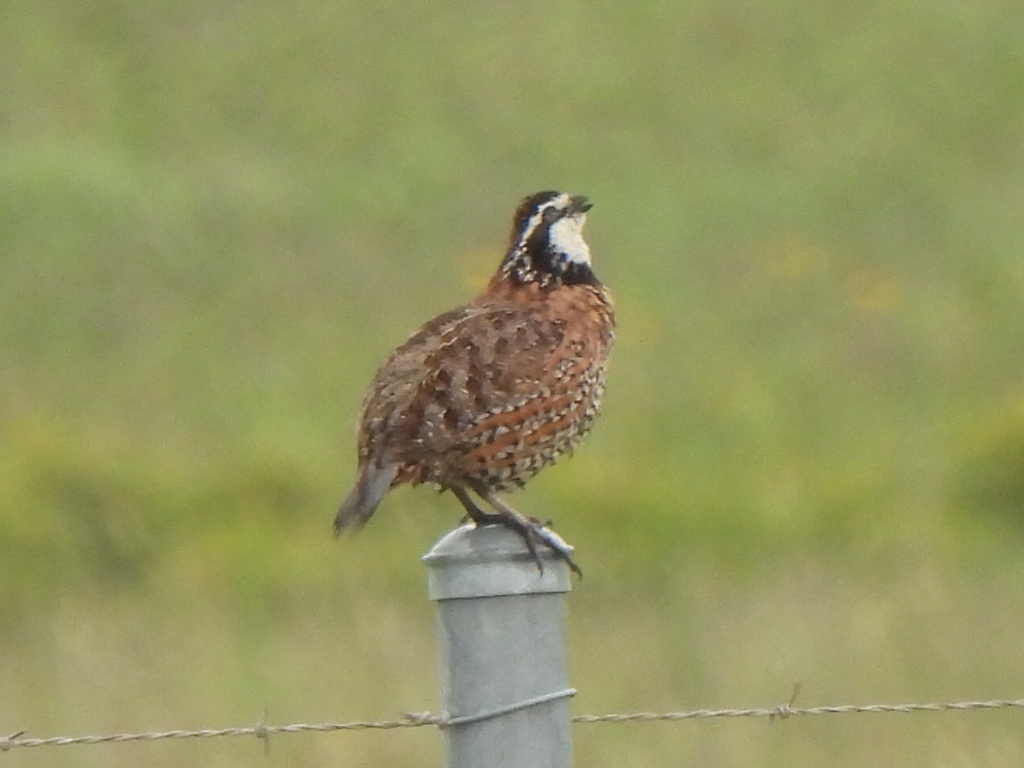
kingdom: Animalia
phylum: Chordata
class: Aves
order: Galliformes
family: Odontophoridae
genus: Colinus
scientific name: Colinus virginianus
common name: Northern bobwhite
